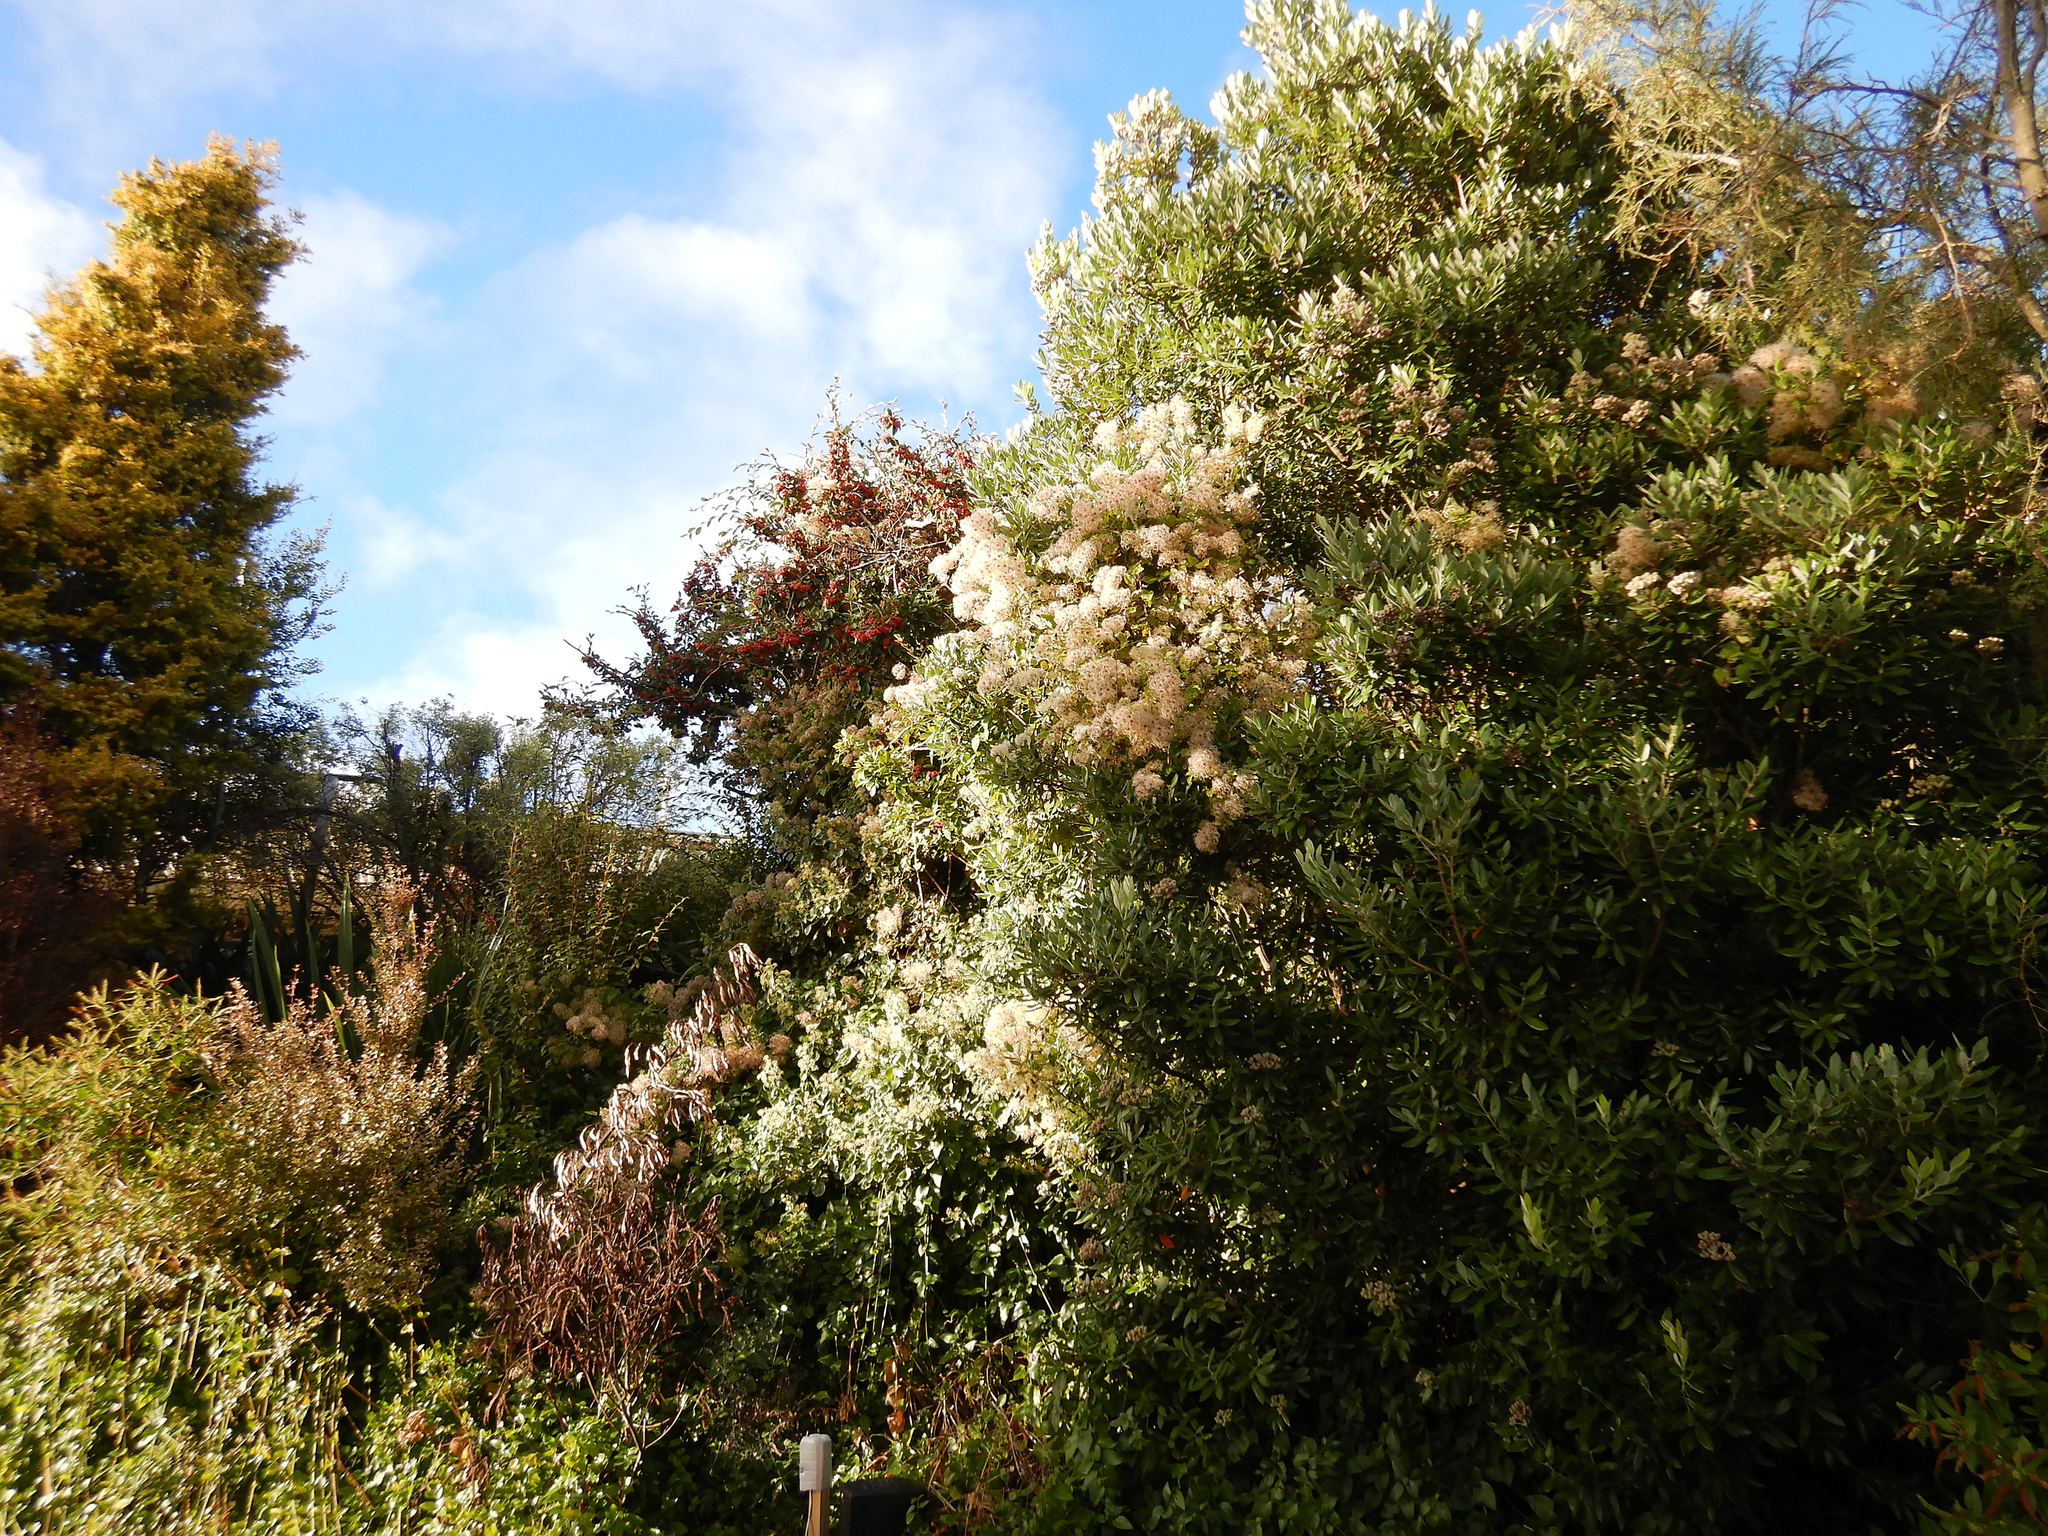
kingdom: Plantae
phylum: Tracheophyta
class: Magnoliopsida
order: Ranunculales
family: Ranunculaceae
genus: Clematis
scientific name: Clematis vitalba
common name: Evergreen clematis
